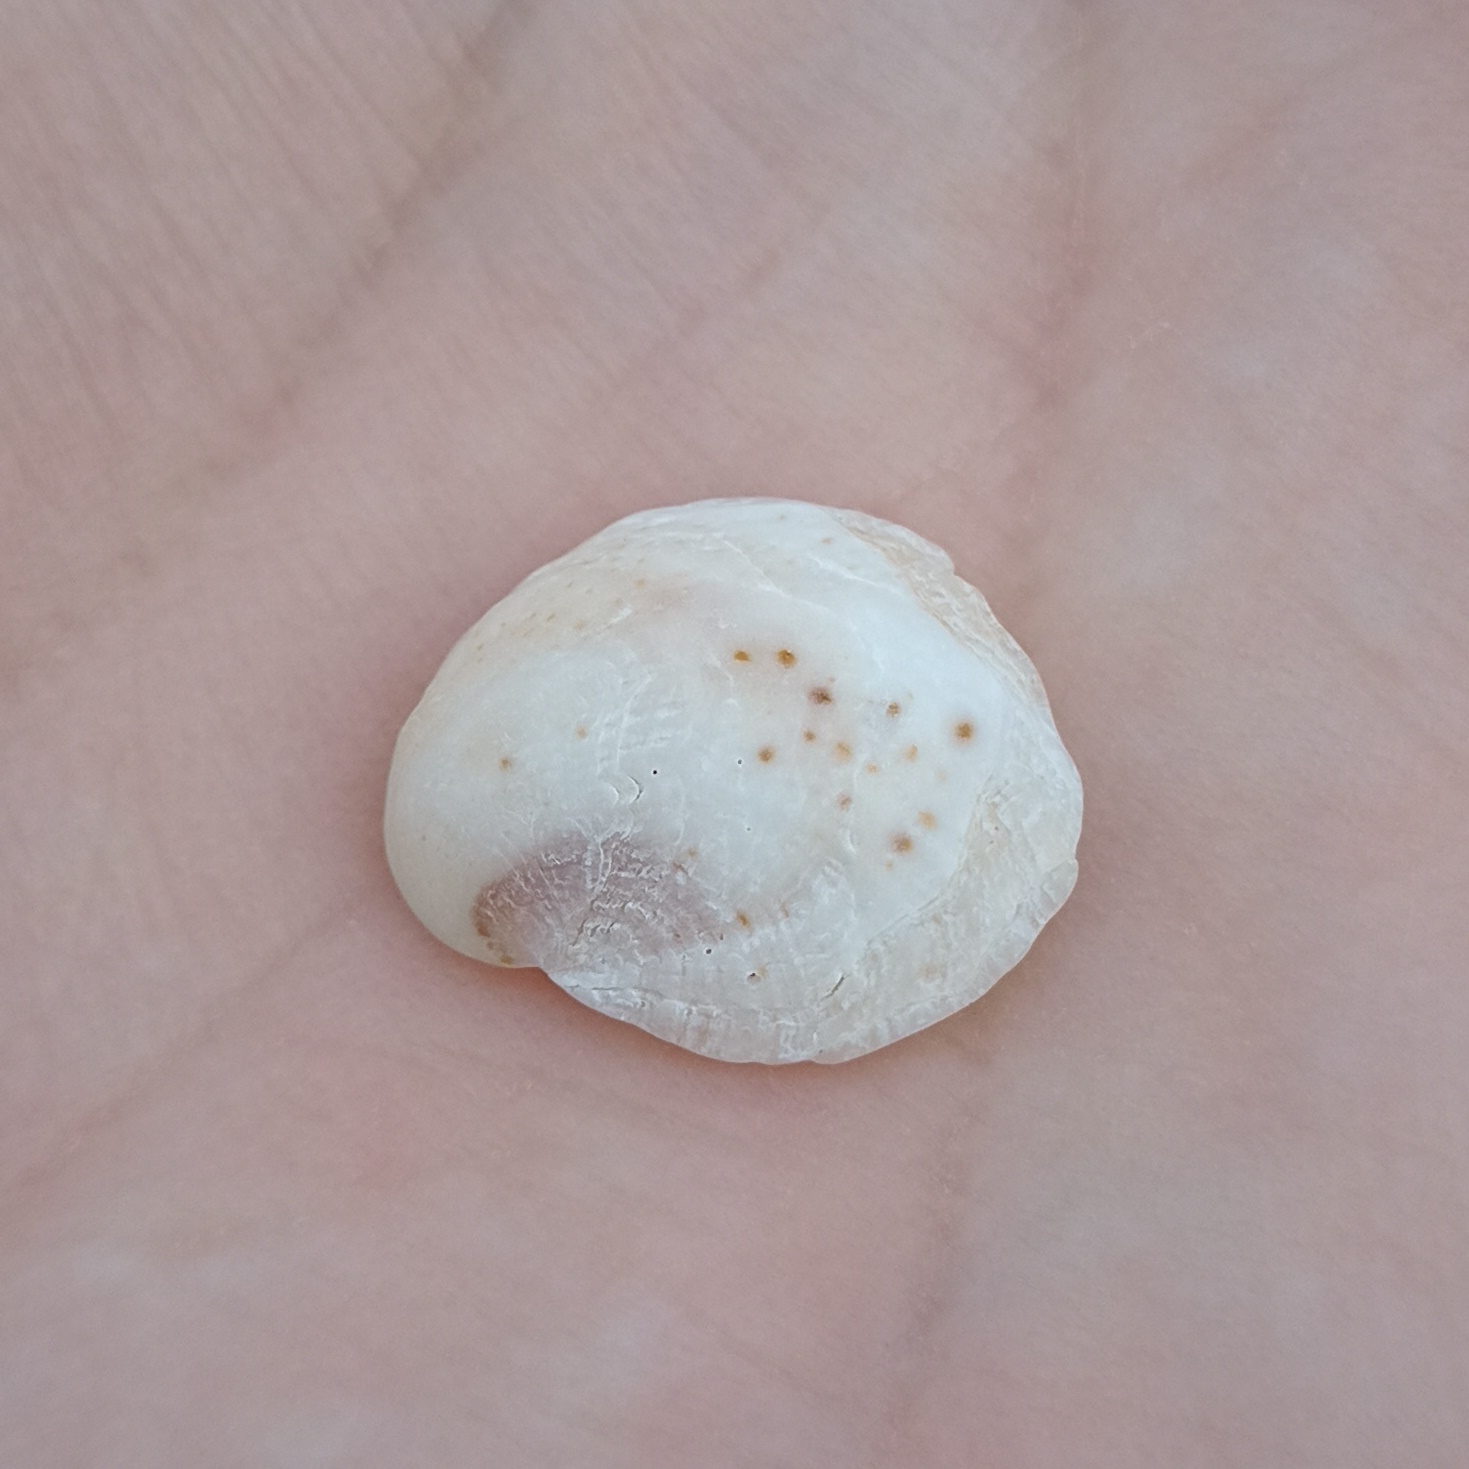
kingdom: Animalia
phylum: Mollusca
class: Gastropoda
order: Littorinimorpha
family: Calyptraeidae
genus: Bostrycapulus
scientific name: Bostrycapulus odites
